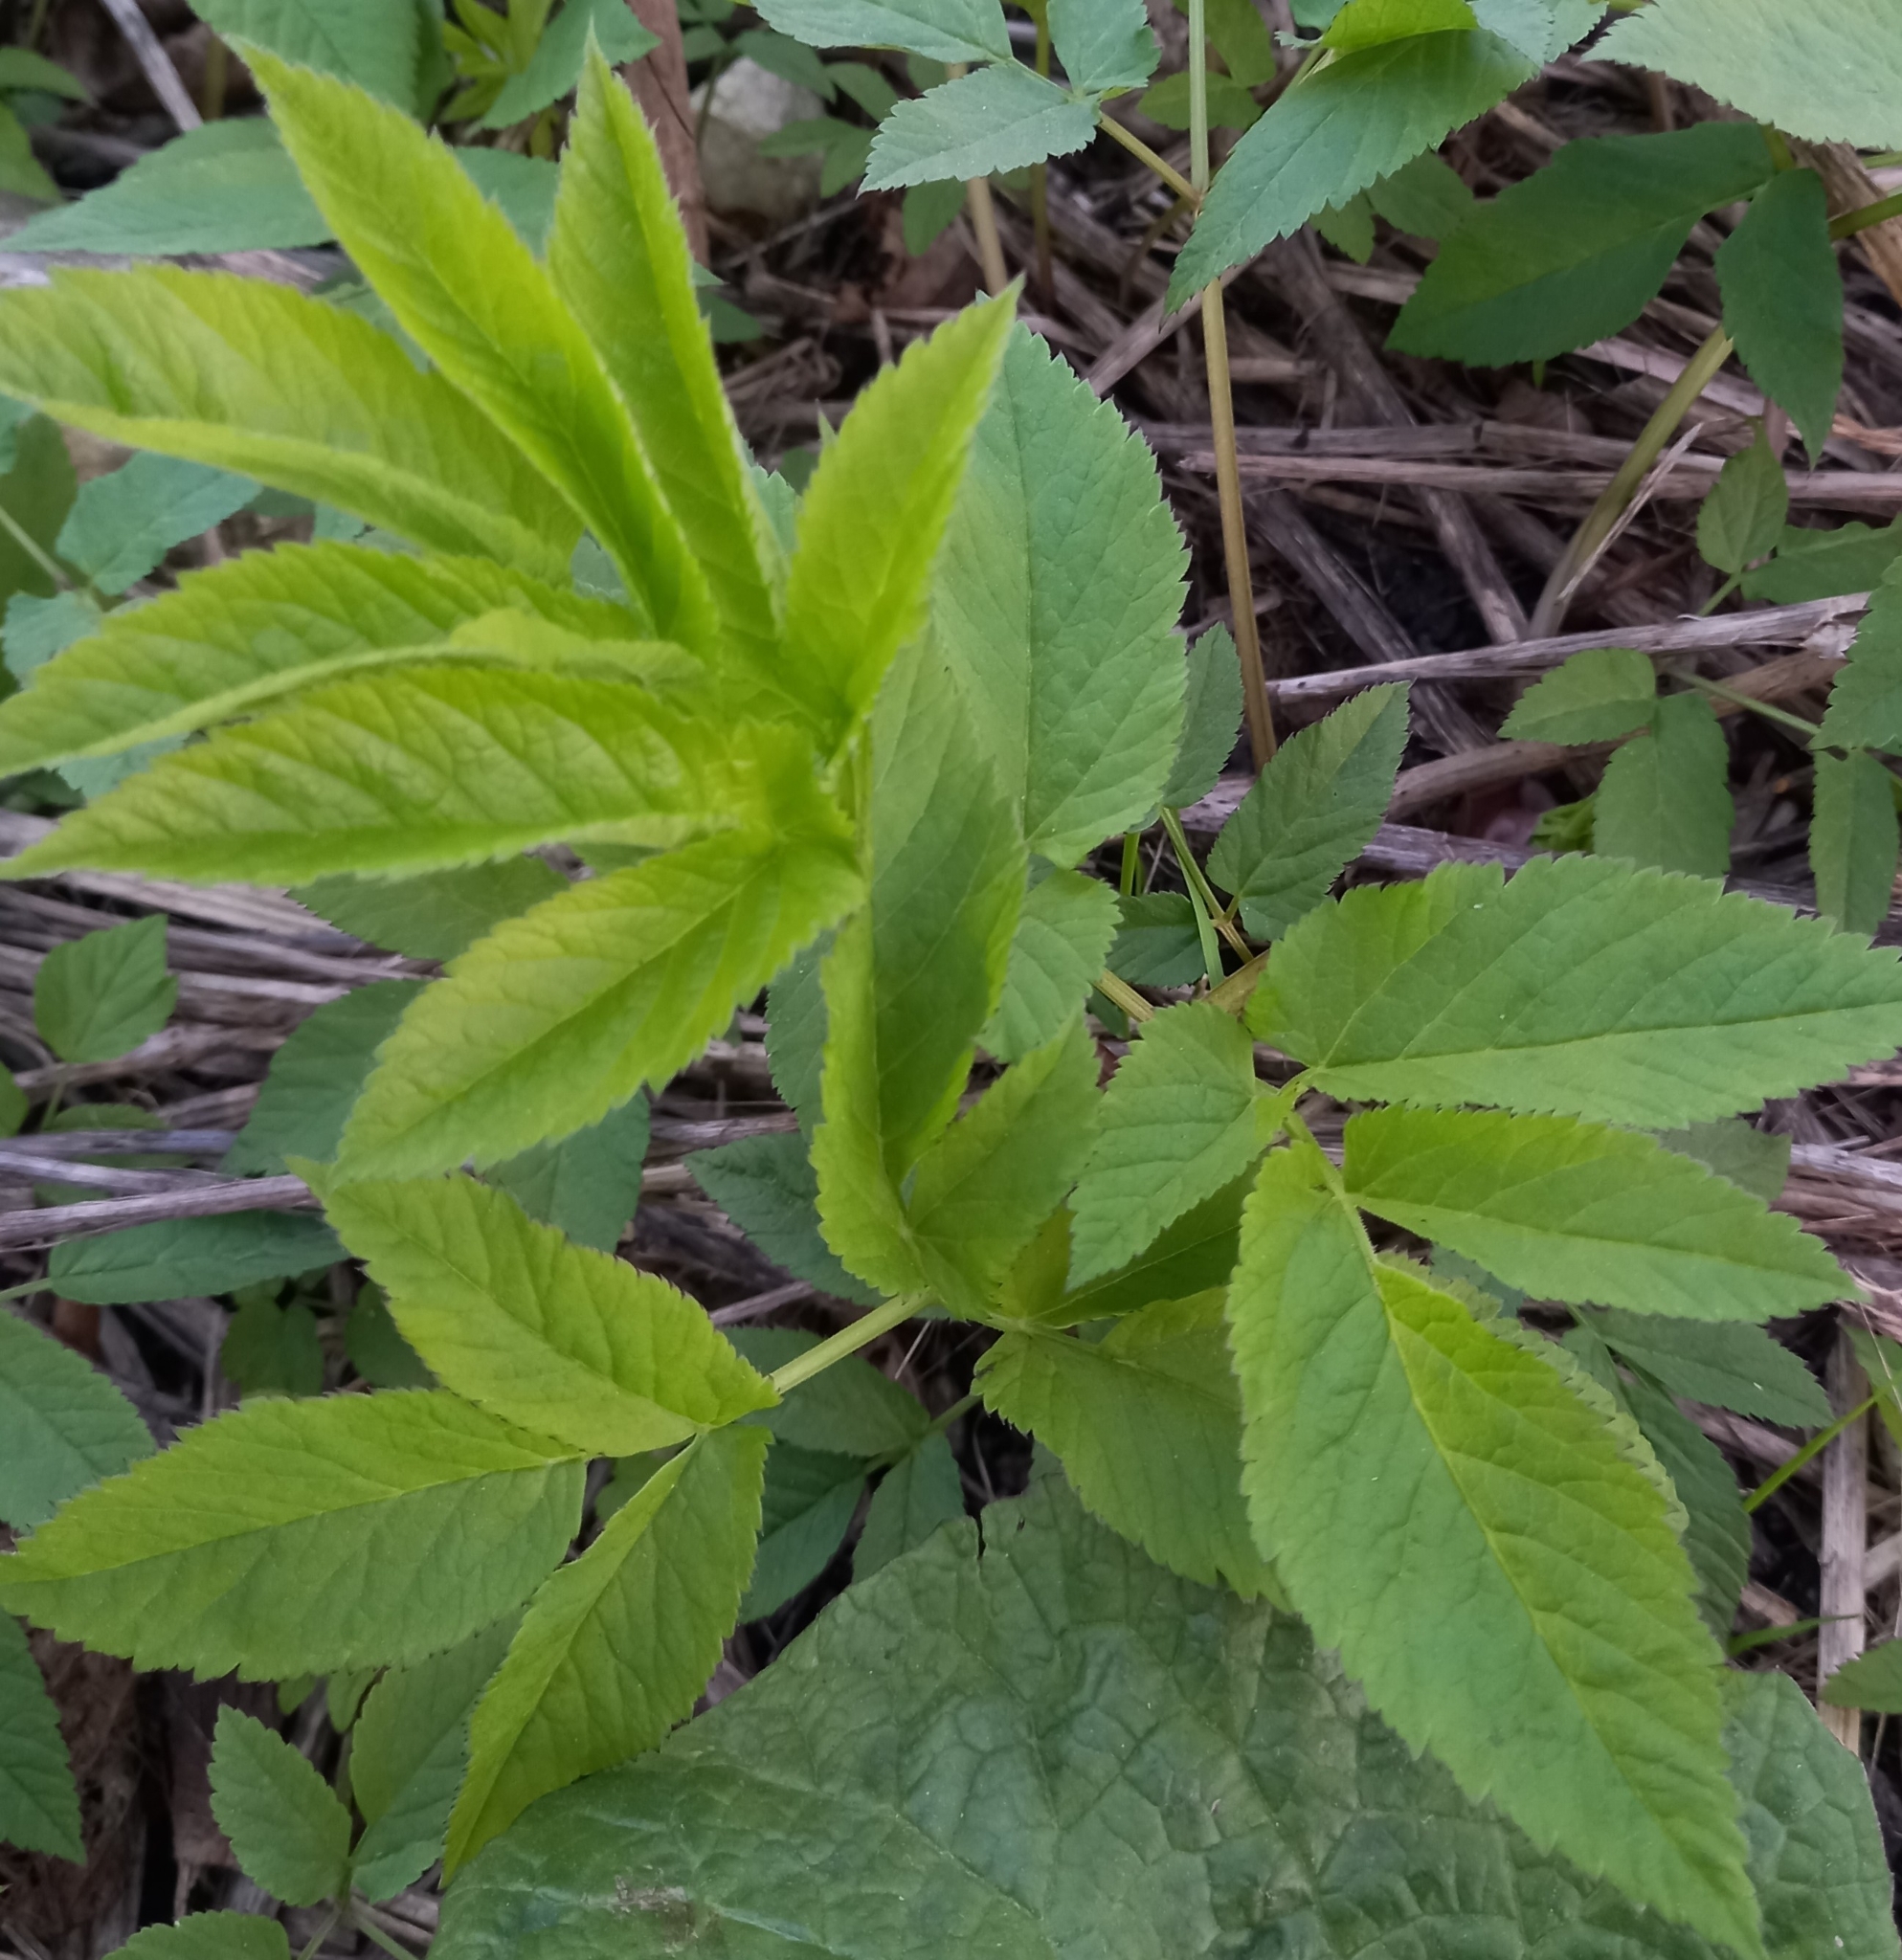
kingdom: Plantae
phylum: Tracheophyta
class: Magnoliopsida
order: Apiales
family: Apiaceae
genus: Aegopodium
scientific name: Aegopodium podagraria
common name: Ground-elder
